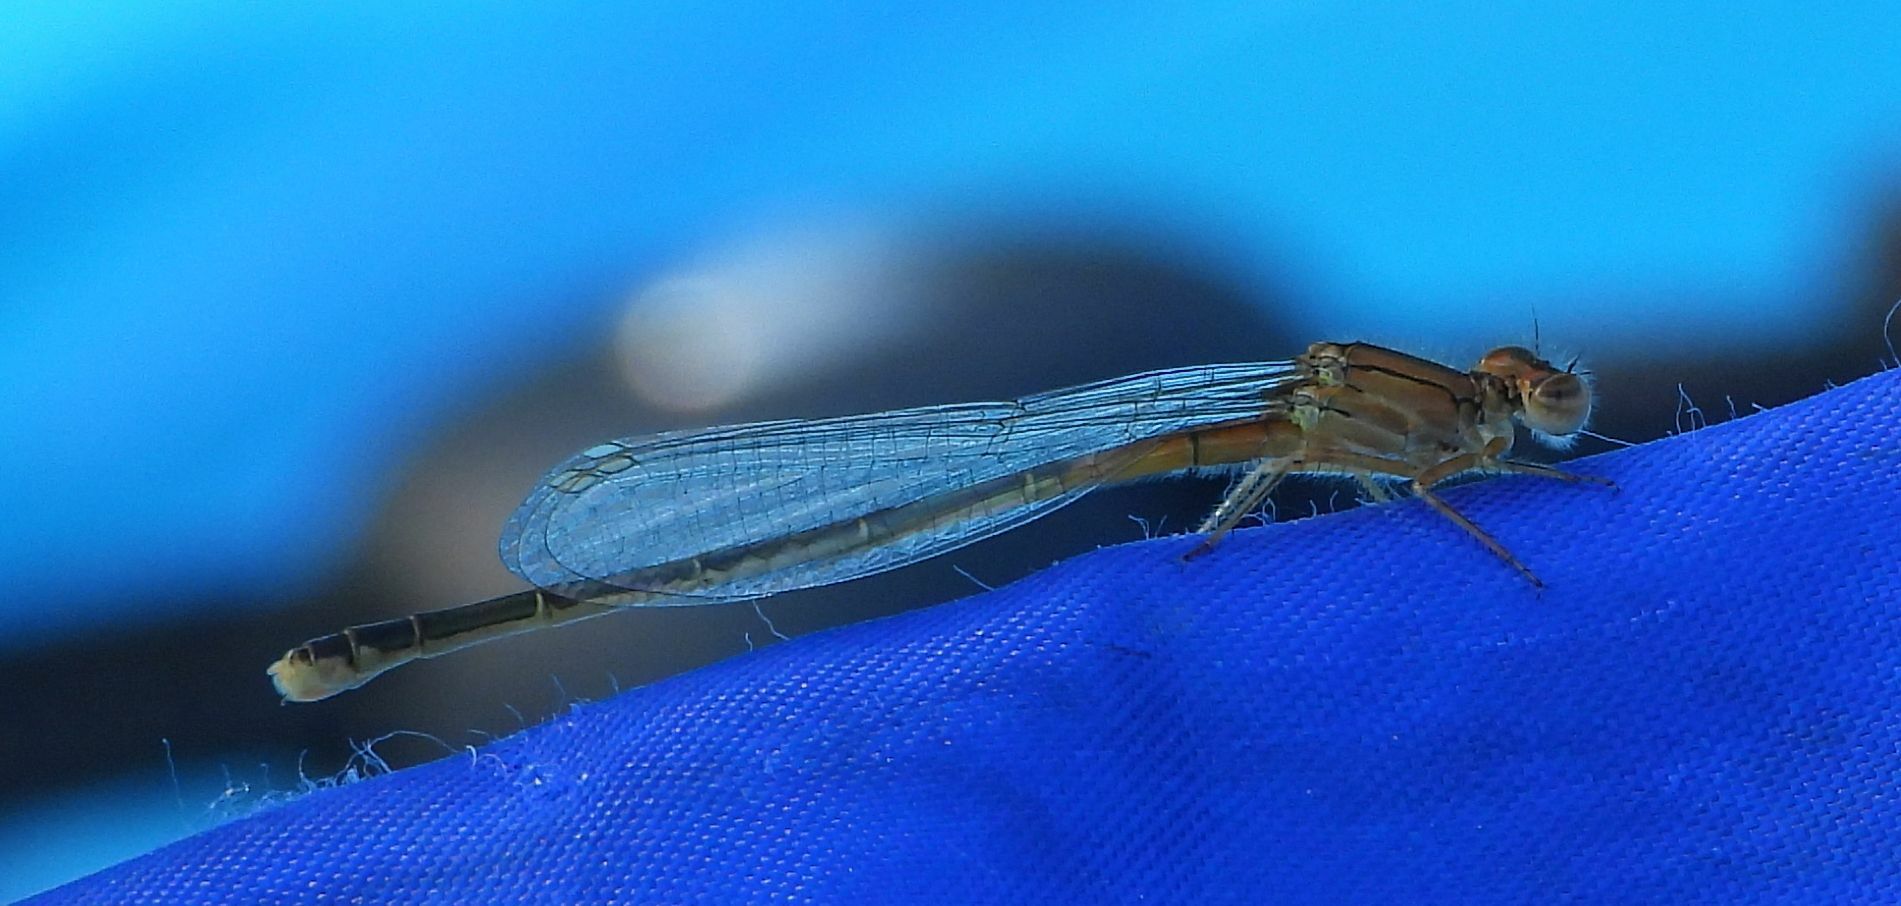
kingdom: Animalia
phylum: Arthropoda
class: Insecta
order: Odonata
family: Coenagrionidae
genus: Ischnura
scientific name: Ischnura verticalis
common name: Eastern forktail
